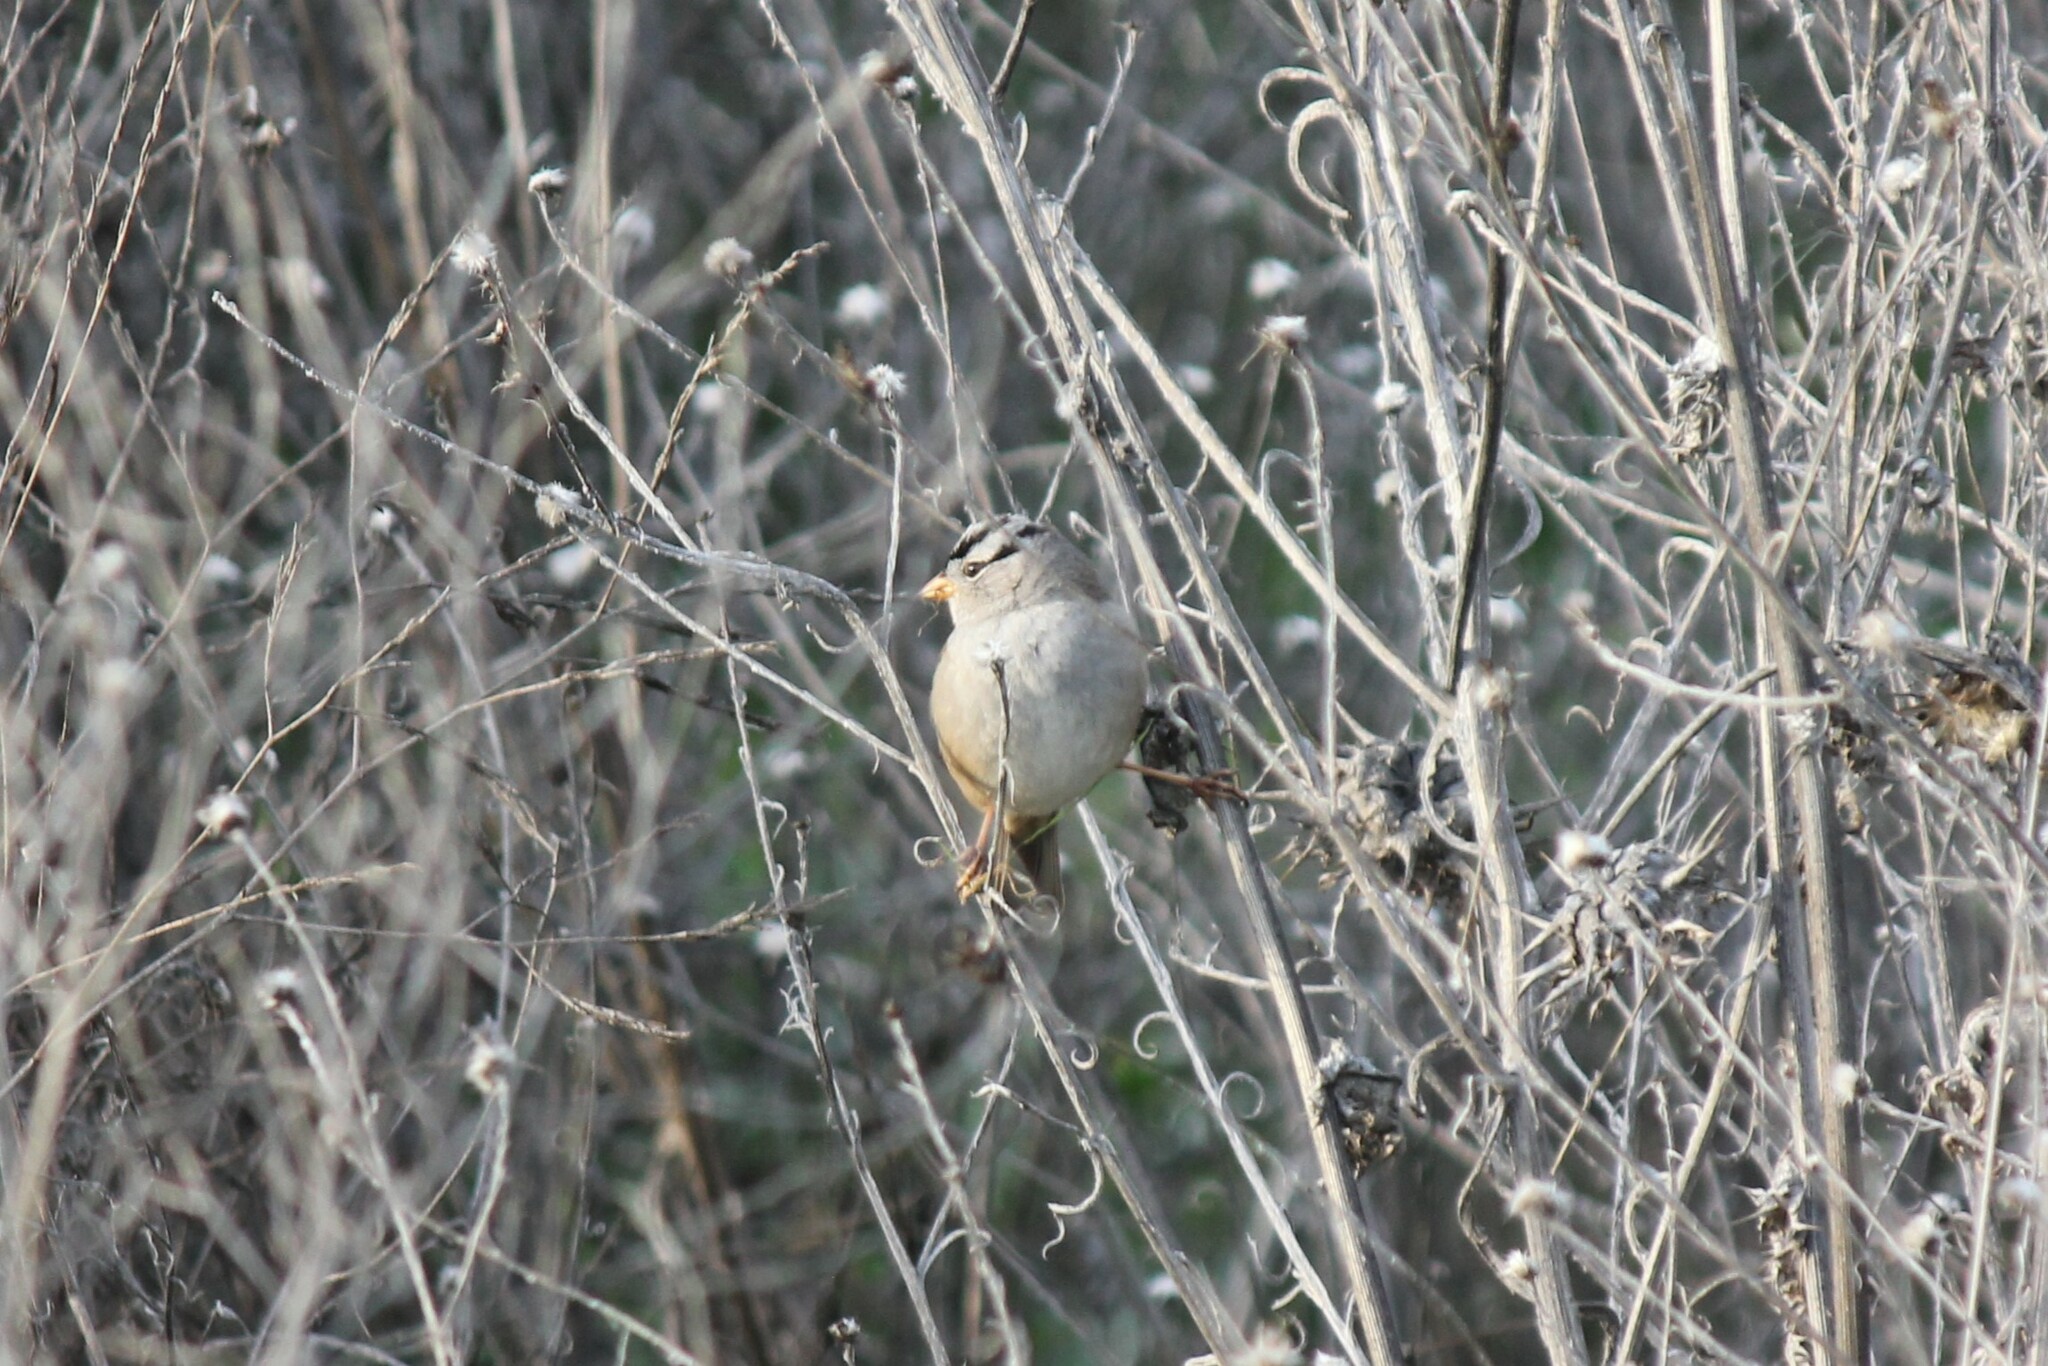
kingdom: Animalia
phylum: Chordata
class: Aves
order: Passeriformes
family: Passerellidae
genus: Zonotrichia
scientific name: Zonotrichia leucophrys
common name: White-crowned sparrow
